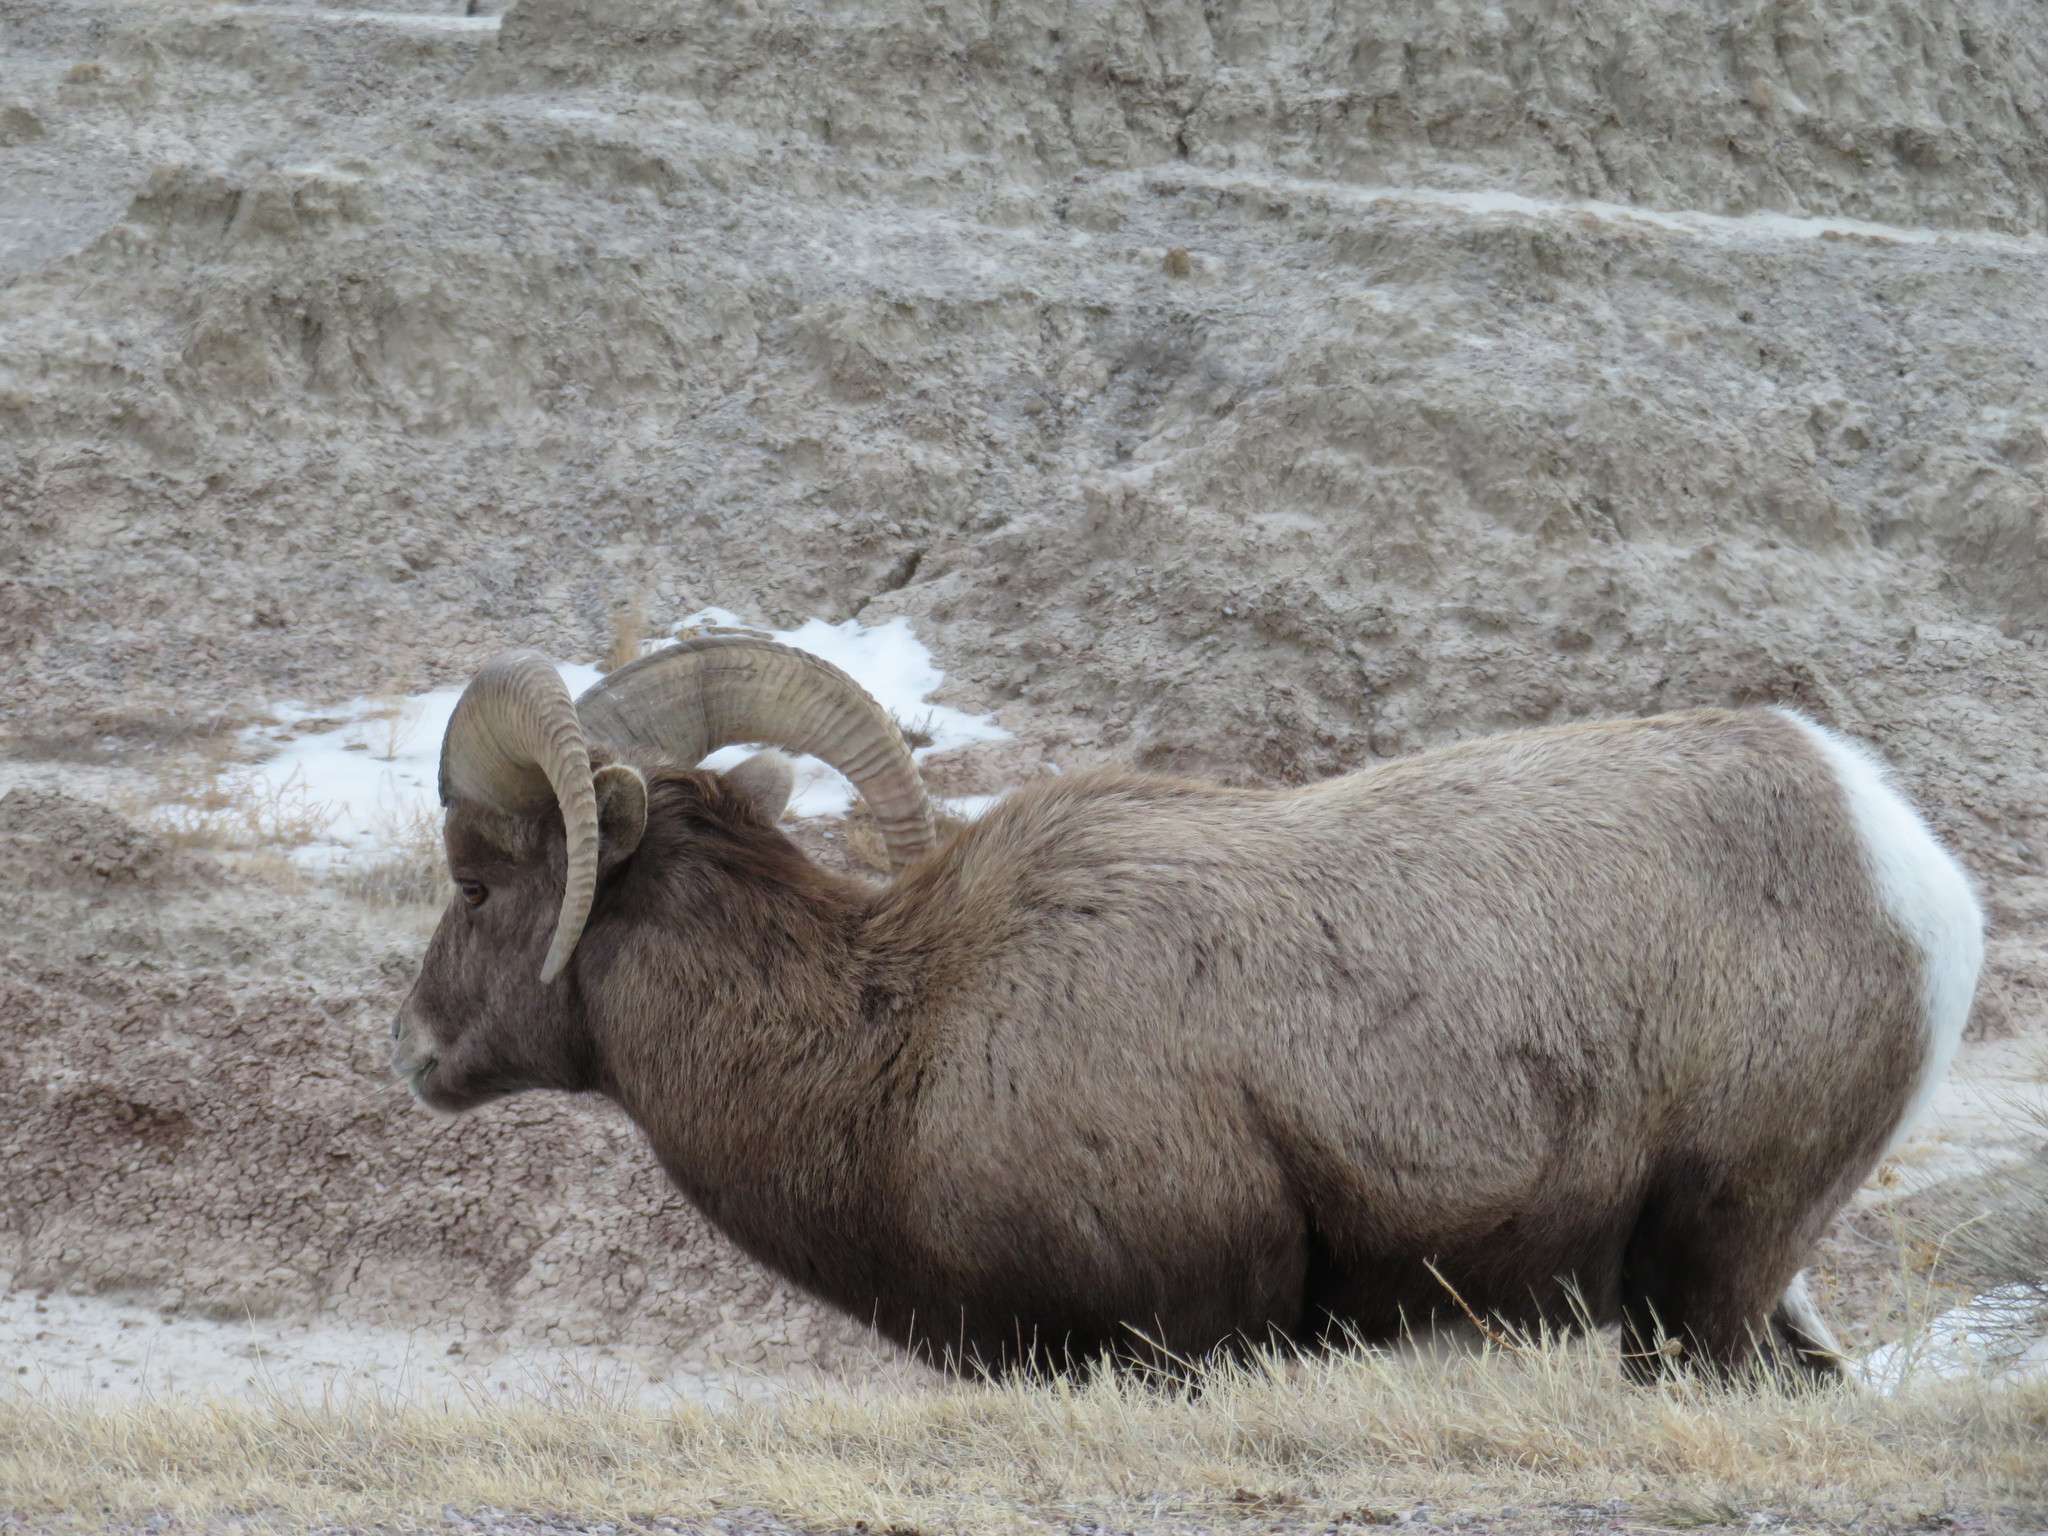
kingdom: Animalia
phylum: Chordata
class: Mammalia
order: Artiodactyla
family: Bovidae
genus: Ovis
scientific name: Ovis canadensis
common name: Bighorn sheep
